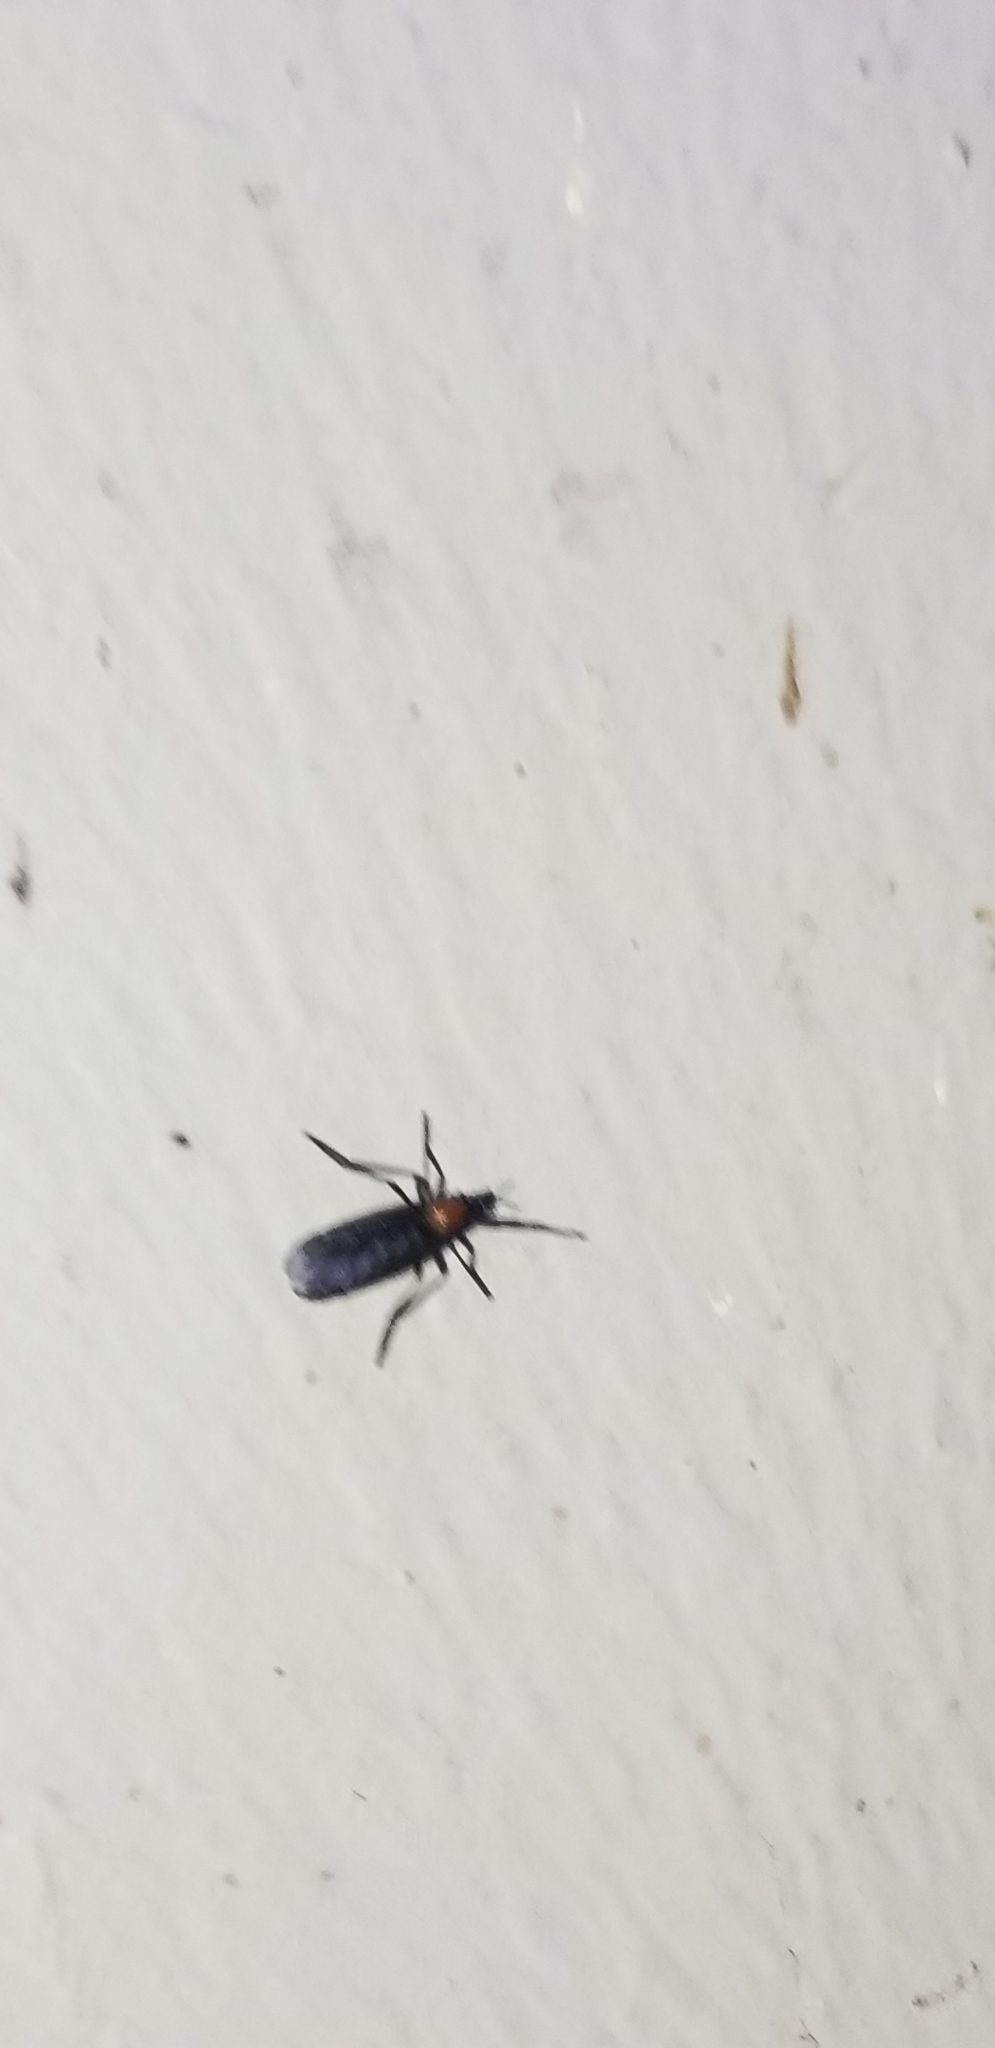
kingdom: Animalia
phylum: Arthropoda
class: Insecta
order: Diptera
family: Bibionidae
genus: Plecia
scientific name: Plecia nearctica
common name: March fly
